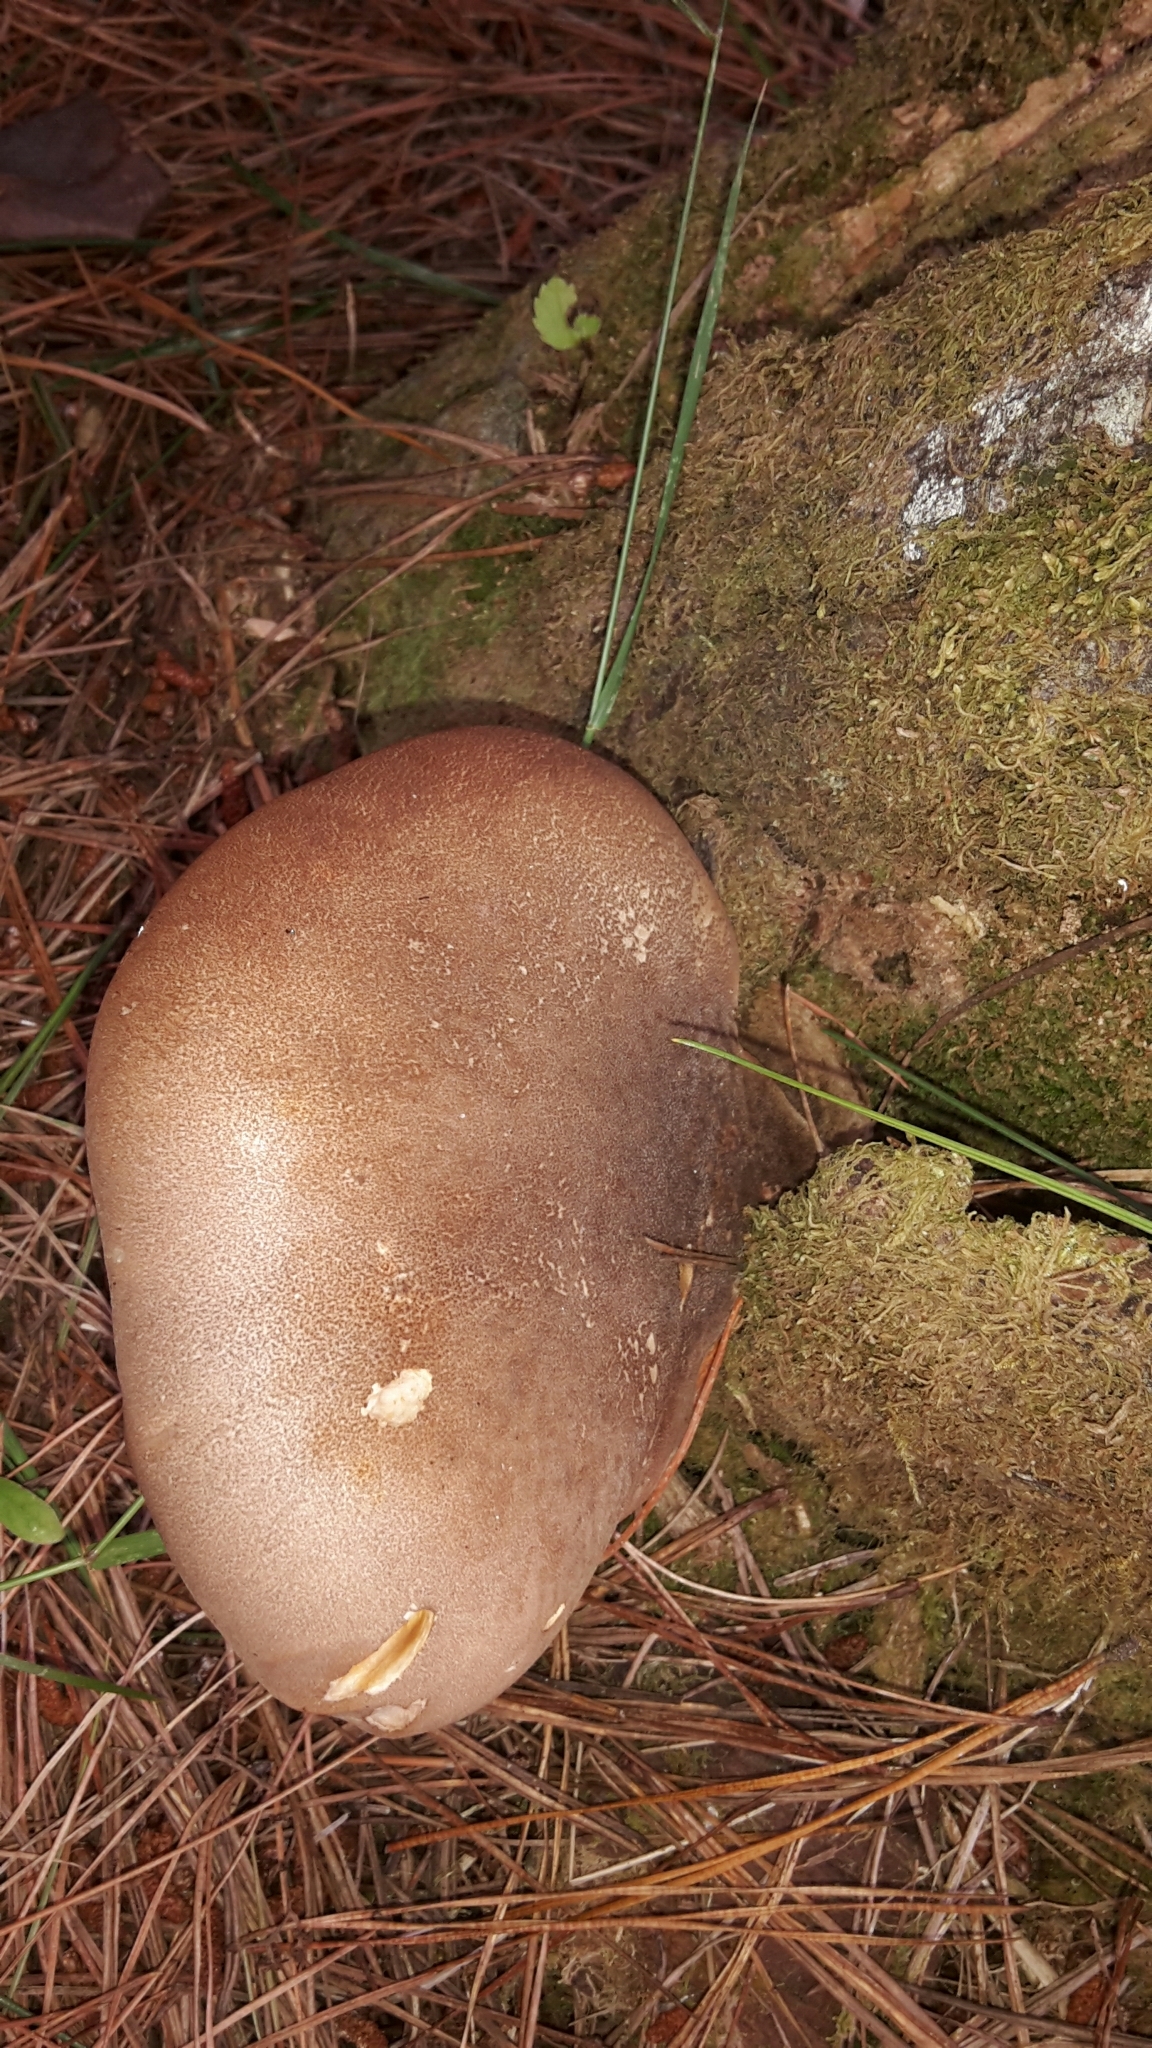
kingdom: Fungi
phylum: Basidiomycota
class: Agaricomycetes
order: Boletales
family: Tapinellaceae
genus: Tapinella
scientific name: Tapinella atrotomentosa
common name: Velvet rollrim
